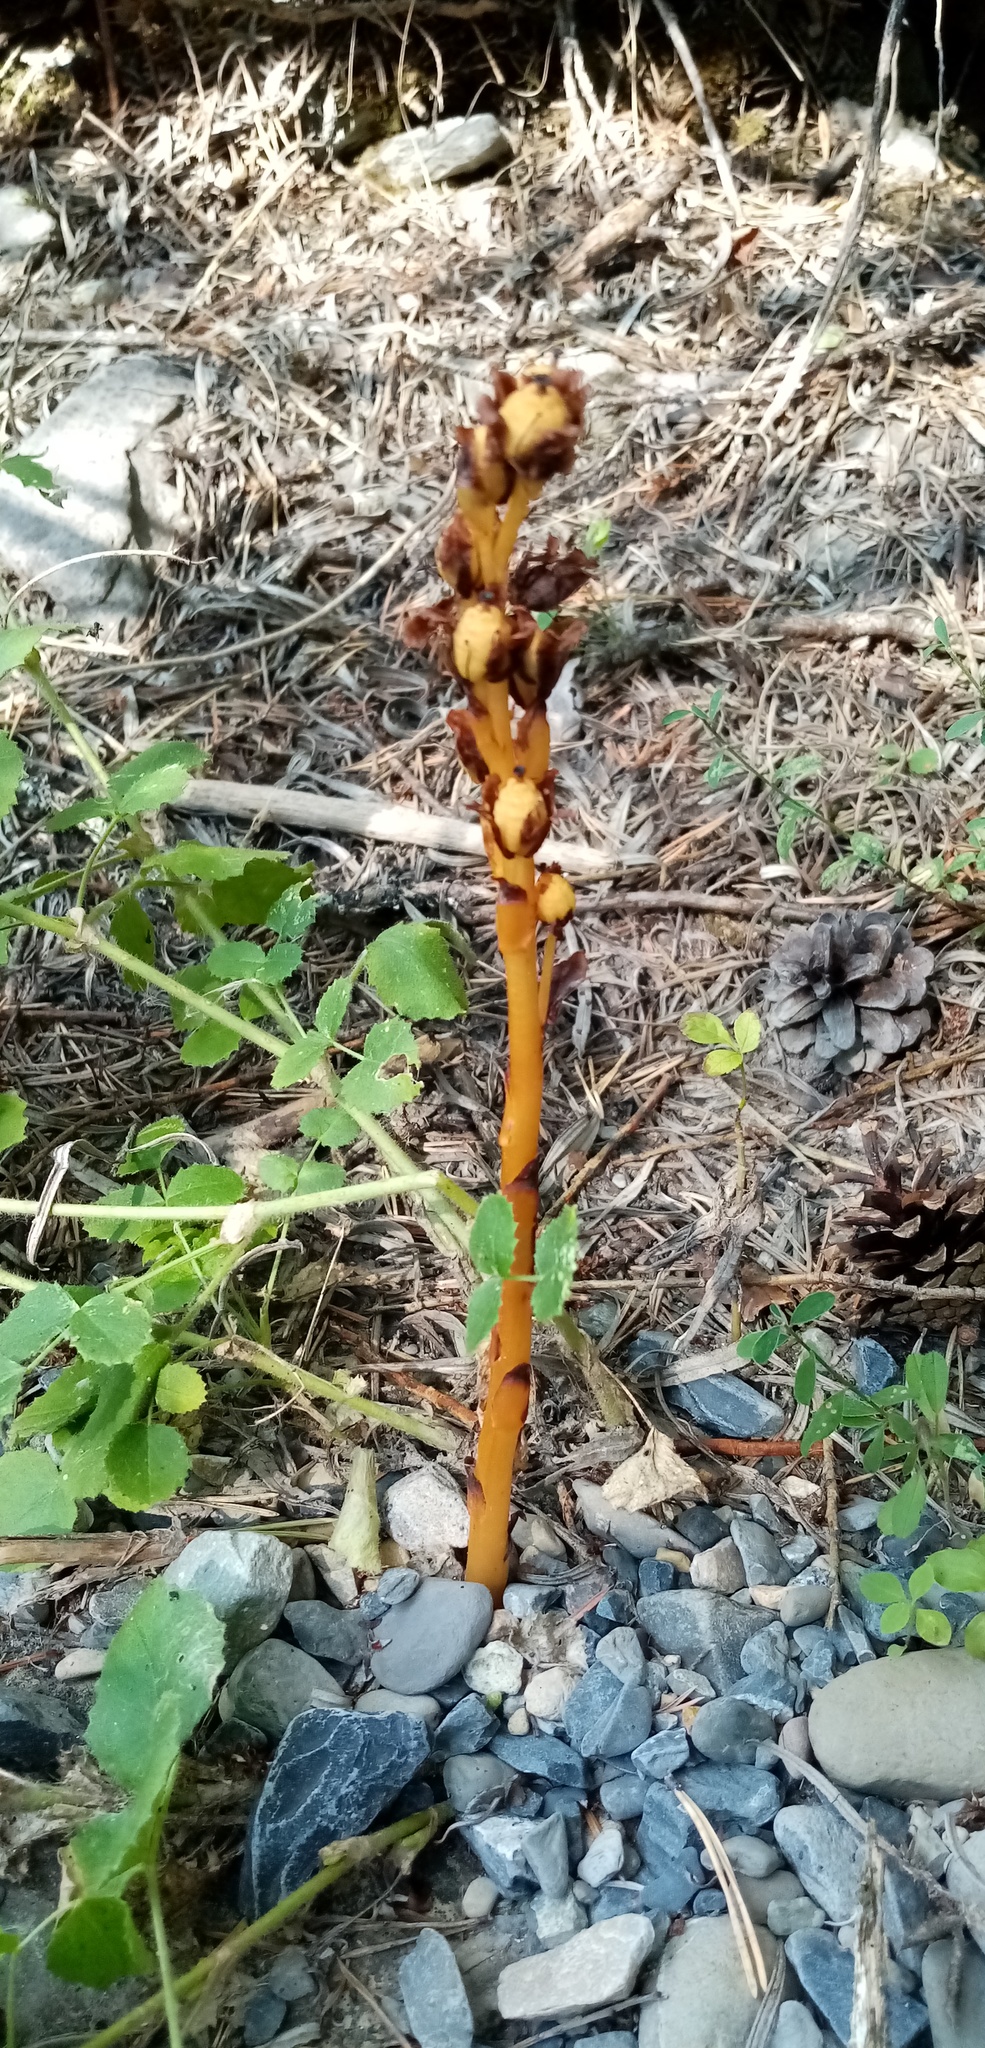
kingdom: Plantae
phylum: Tracheophyta
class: Magnoliopsida
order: Ericales
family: Ericaceae
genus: Hypopitys
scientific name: Hypopitys monotropa
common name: Yellow bird's-nest
